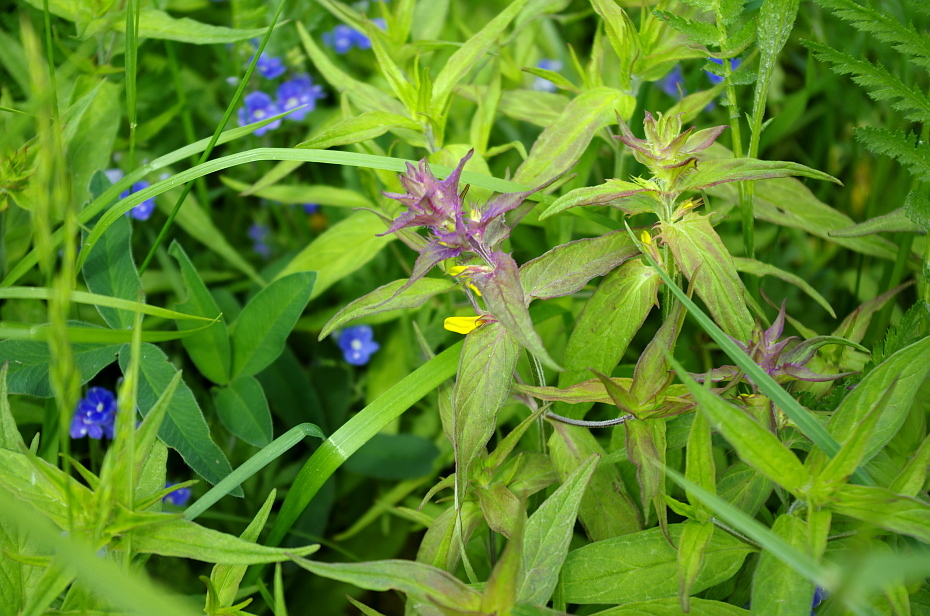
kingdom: Plantae
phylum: Tracheophyta
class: Magnoliopsida
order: Lamiales
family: Orobanchaceae
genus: Melampyrum
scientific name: Melampyrum nemorosum
